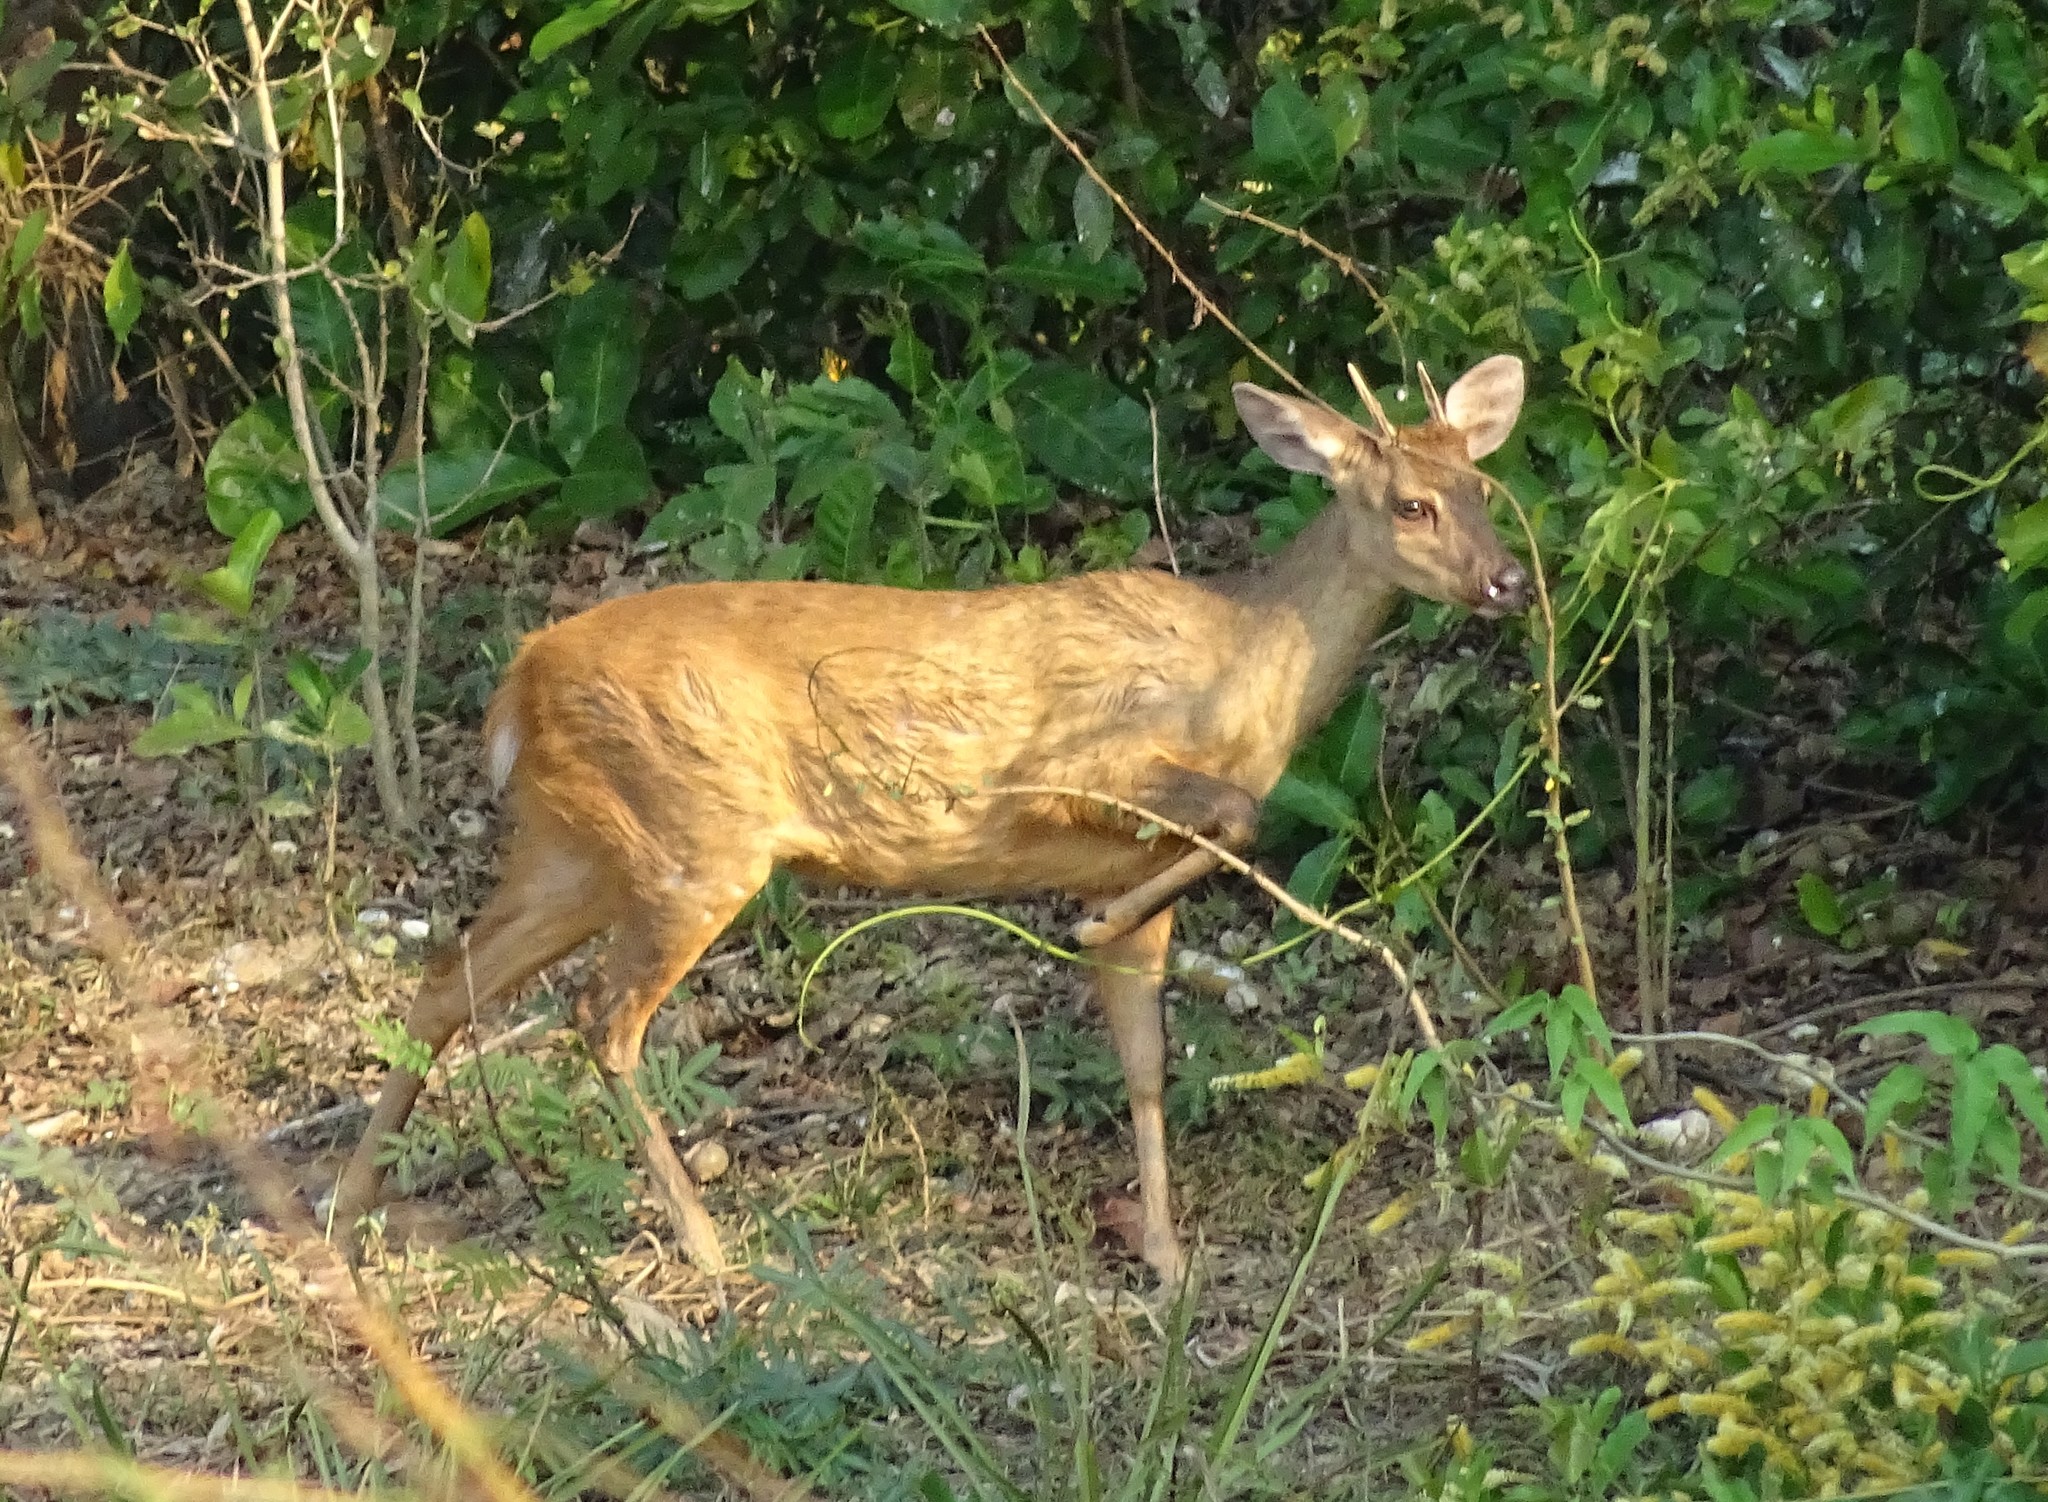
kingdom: Animalia
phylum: Chordata
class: Mammalia
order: Artiodactyla
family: Cervidae
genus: Mazama
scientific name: Mazama gouazoubira
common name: Gray brocket
